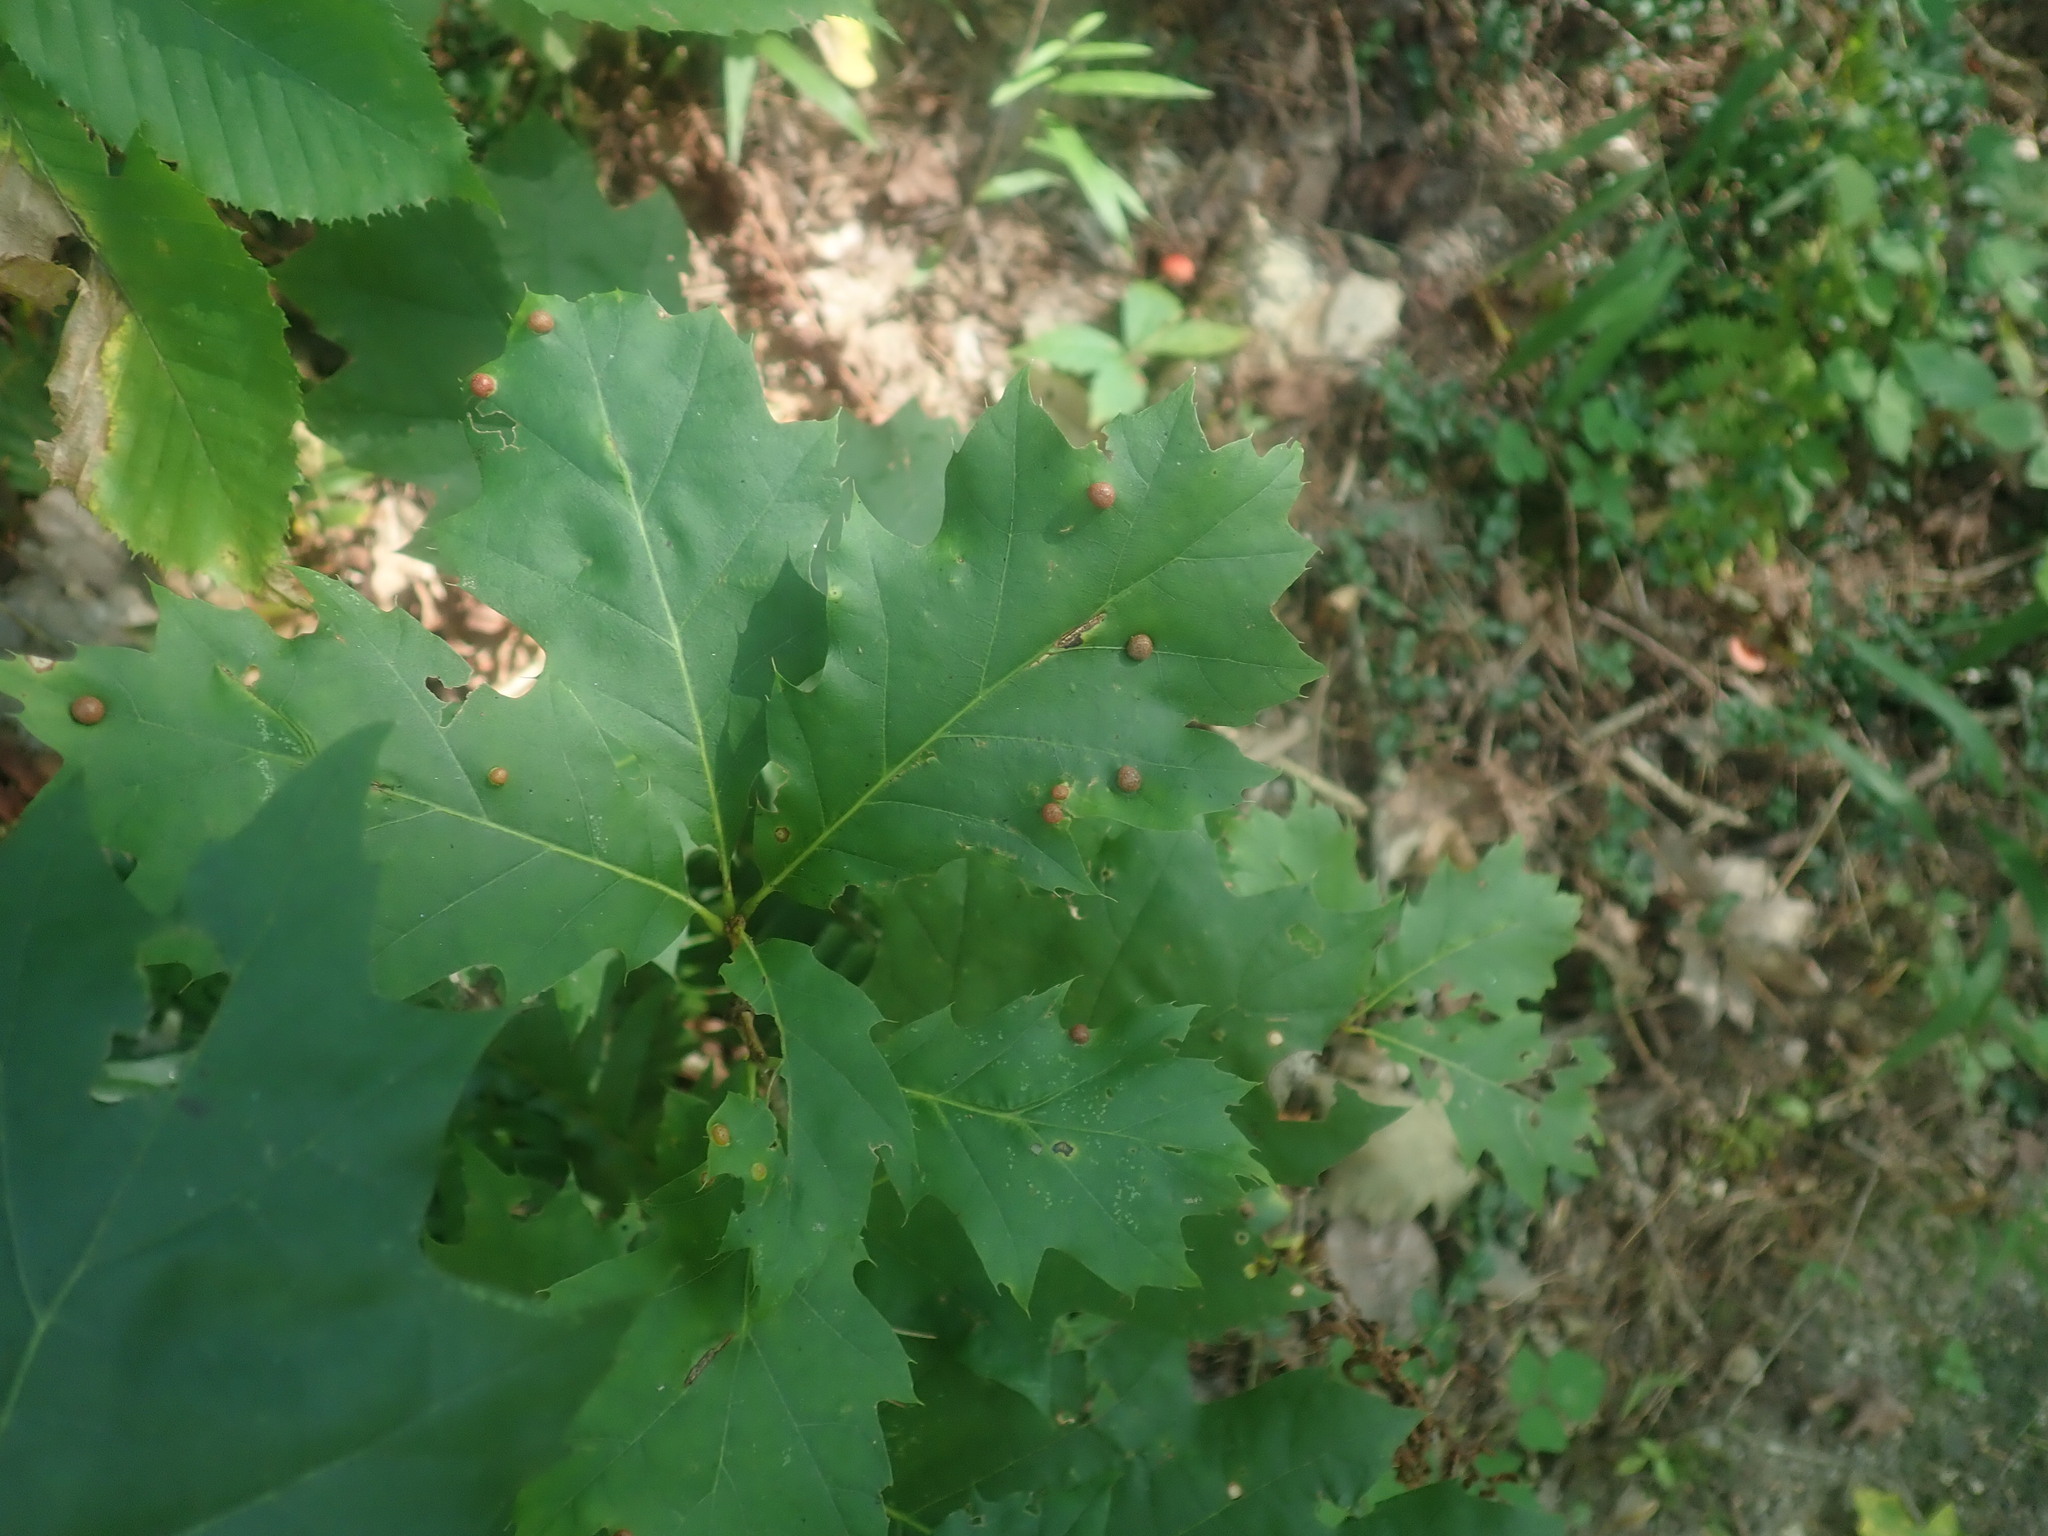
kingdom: Plantae
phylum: Tracheophyta
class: Magnoliopsida
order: Fagales
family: Fagaceae
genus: Quercus
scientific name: Quercus rubra
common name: Red oak
